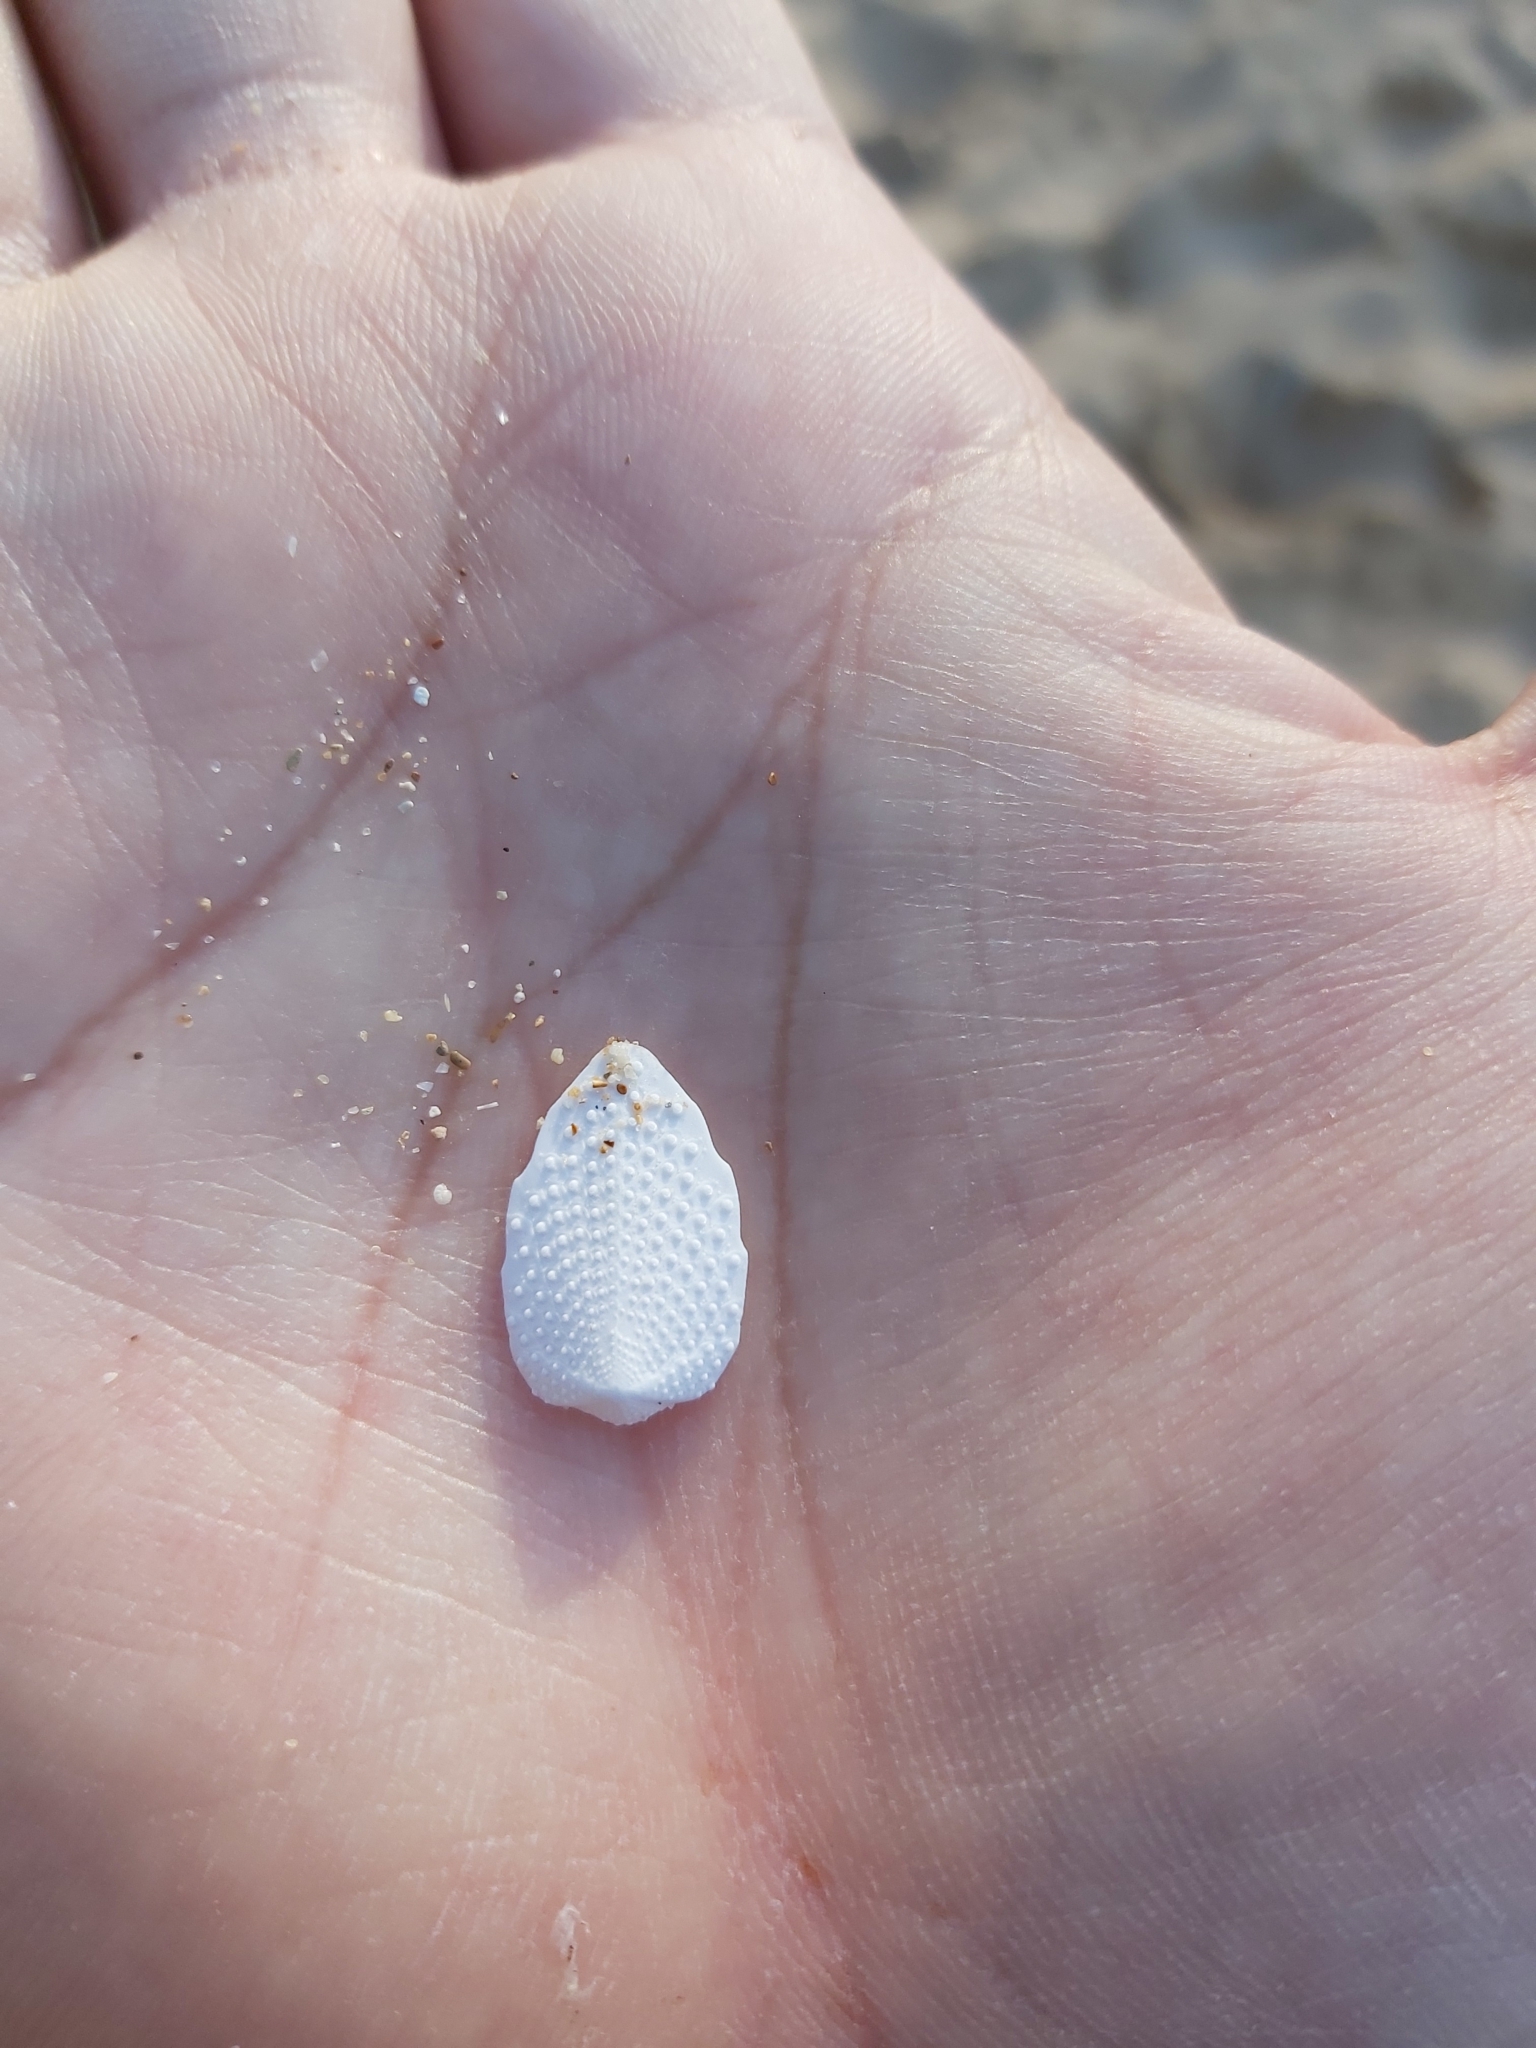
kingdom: Animalia
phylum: Echinodermata
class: Echinoidea
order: Spatangoida
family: Loveniidae
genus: Echinocardium
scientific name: Echinocardium cordatum
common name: Heart-urchin
